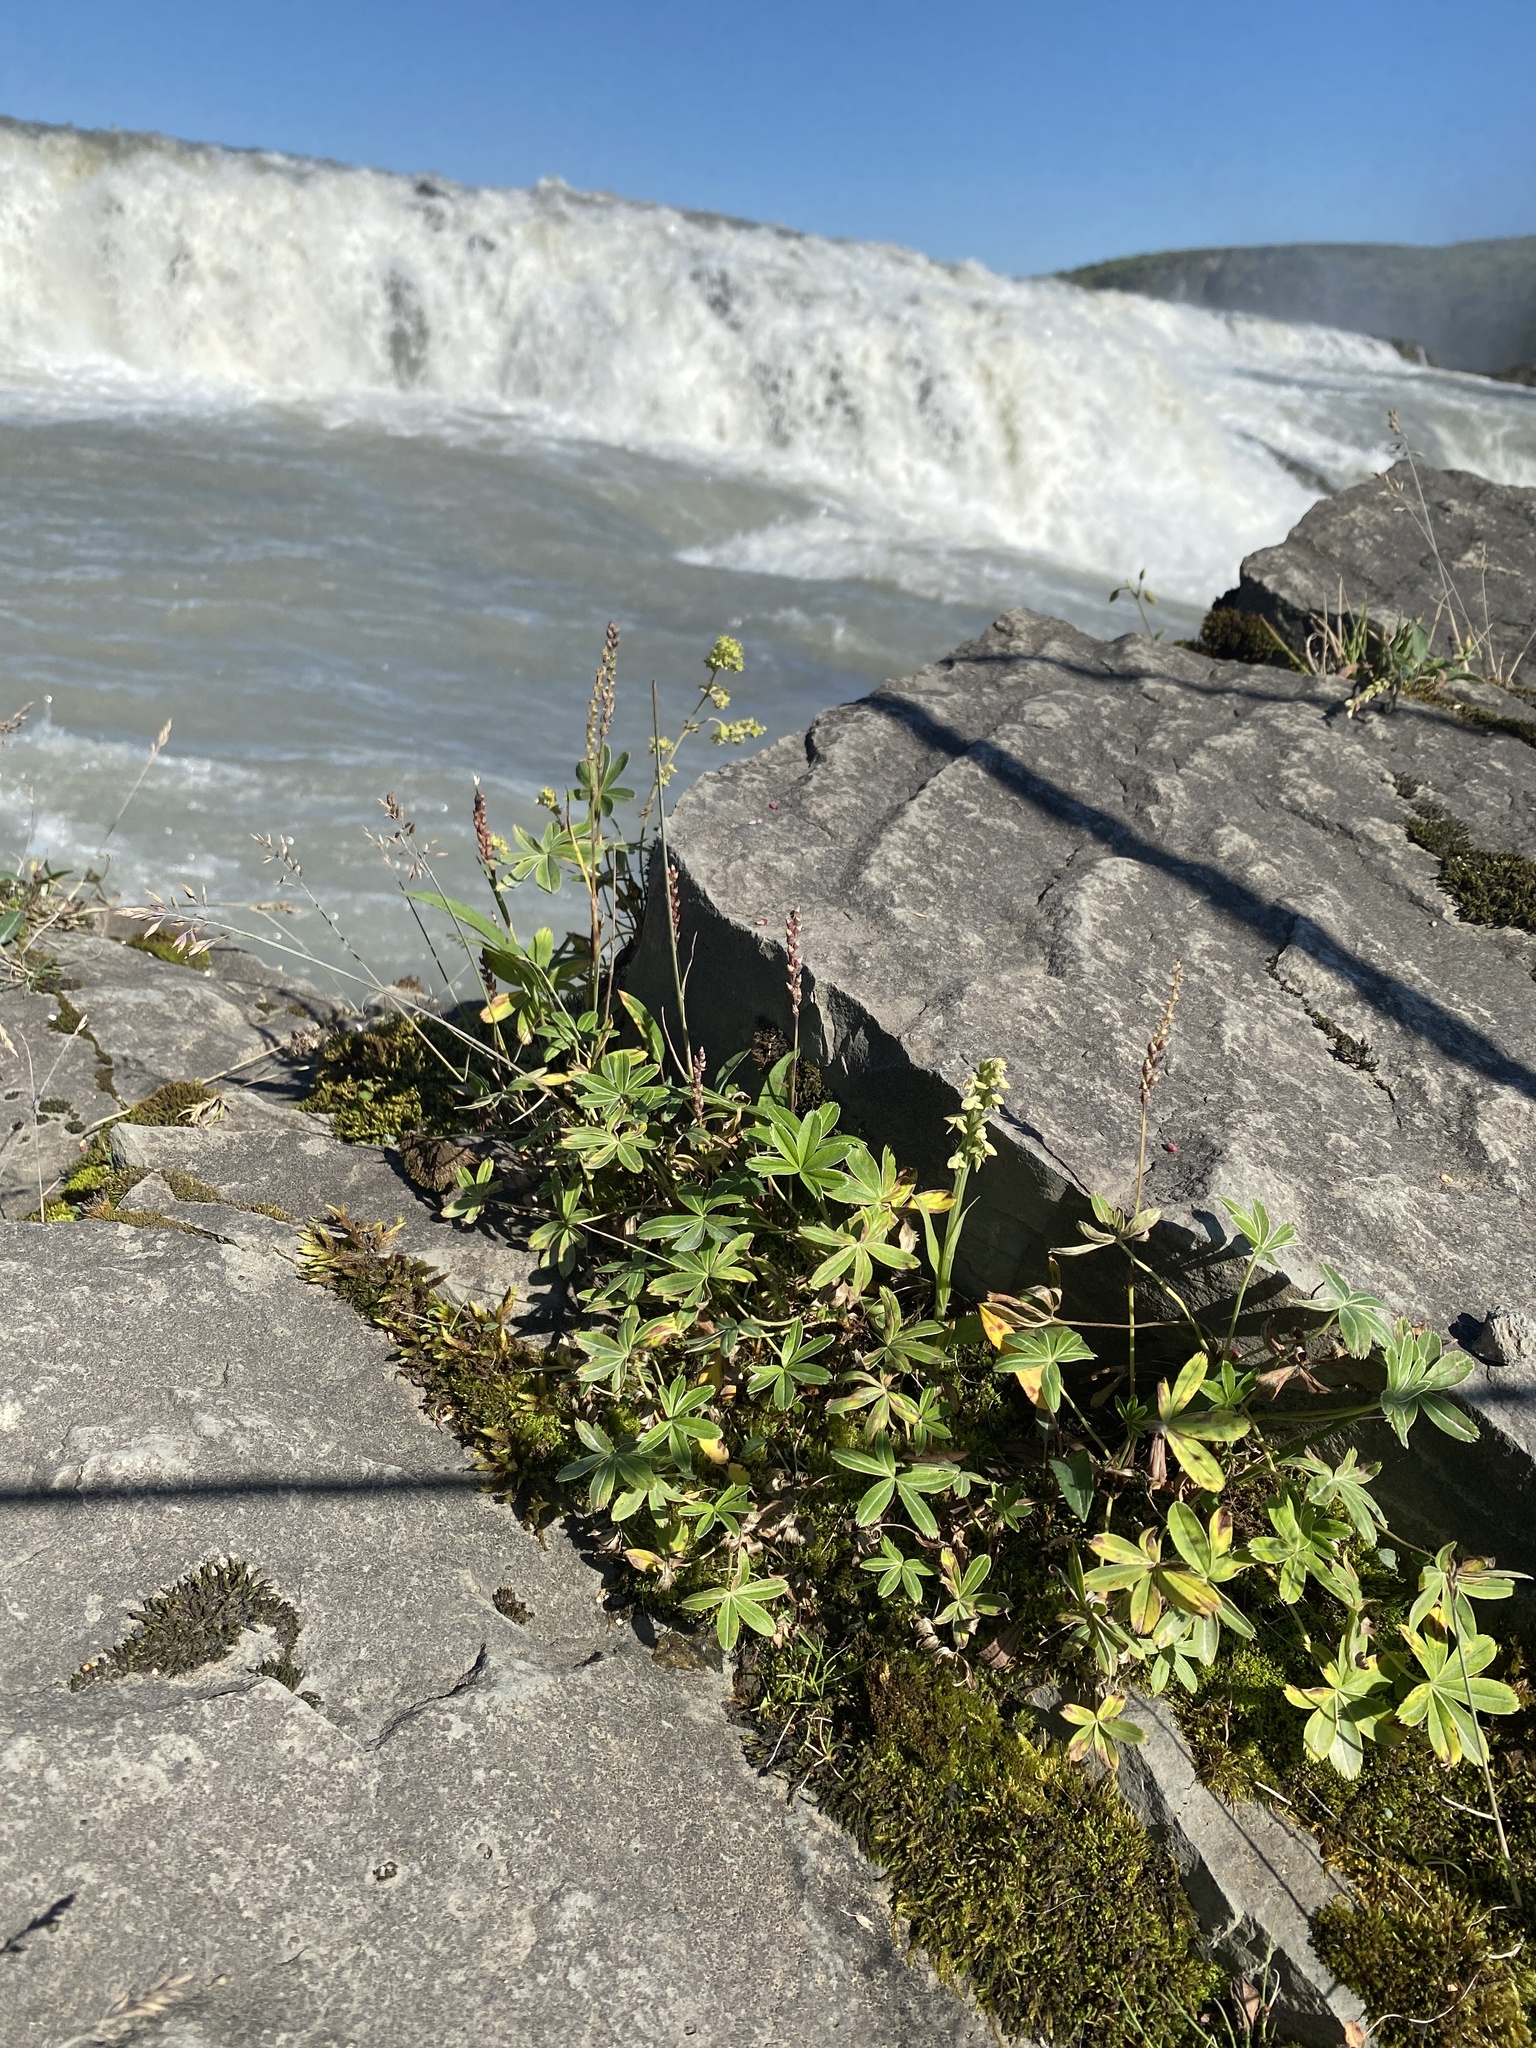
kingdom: Plantae
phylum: Tracheophyta
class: Magnoliopsida
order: Rosales
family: Rosaceae
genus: Alchemilla
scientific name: Alchemilla alpina
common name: Alpine lady's-mantle
